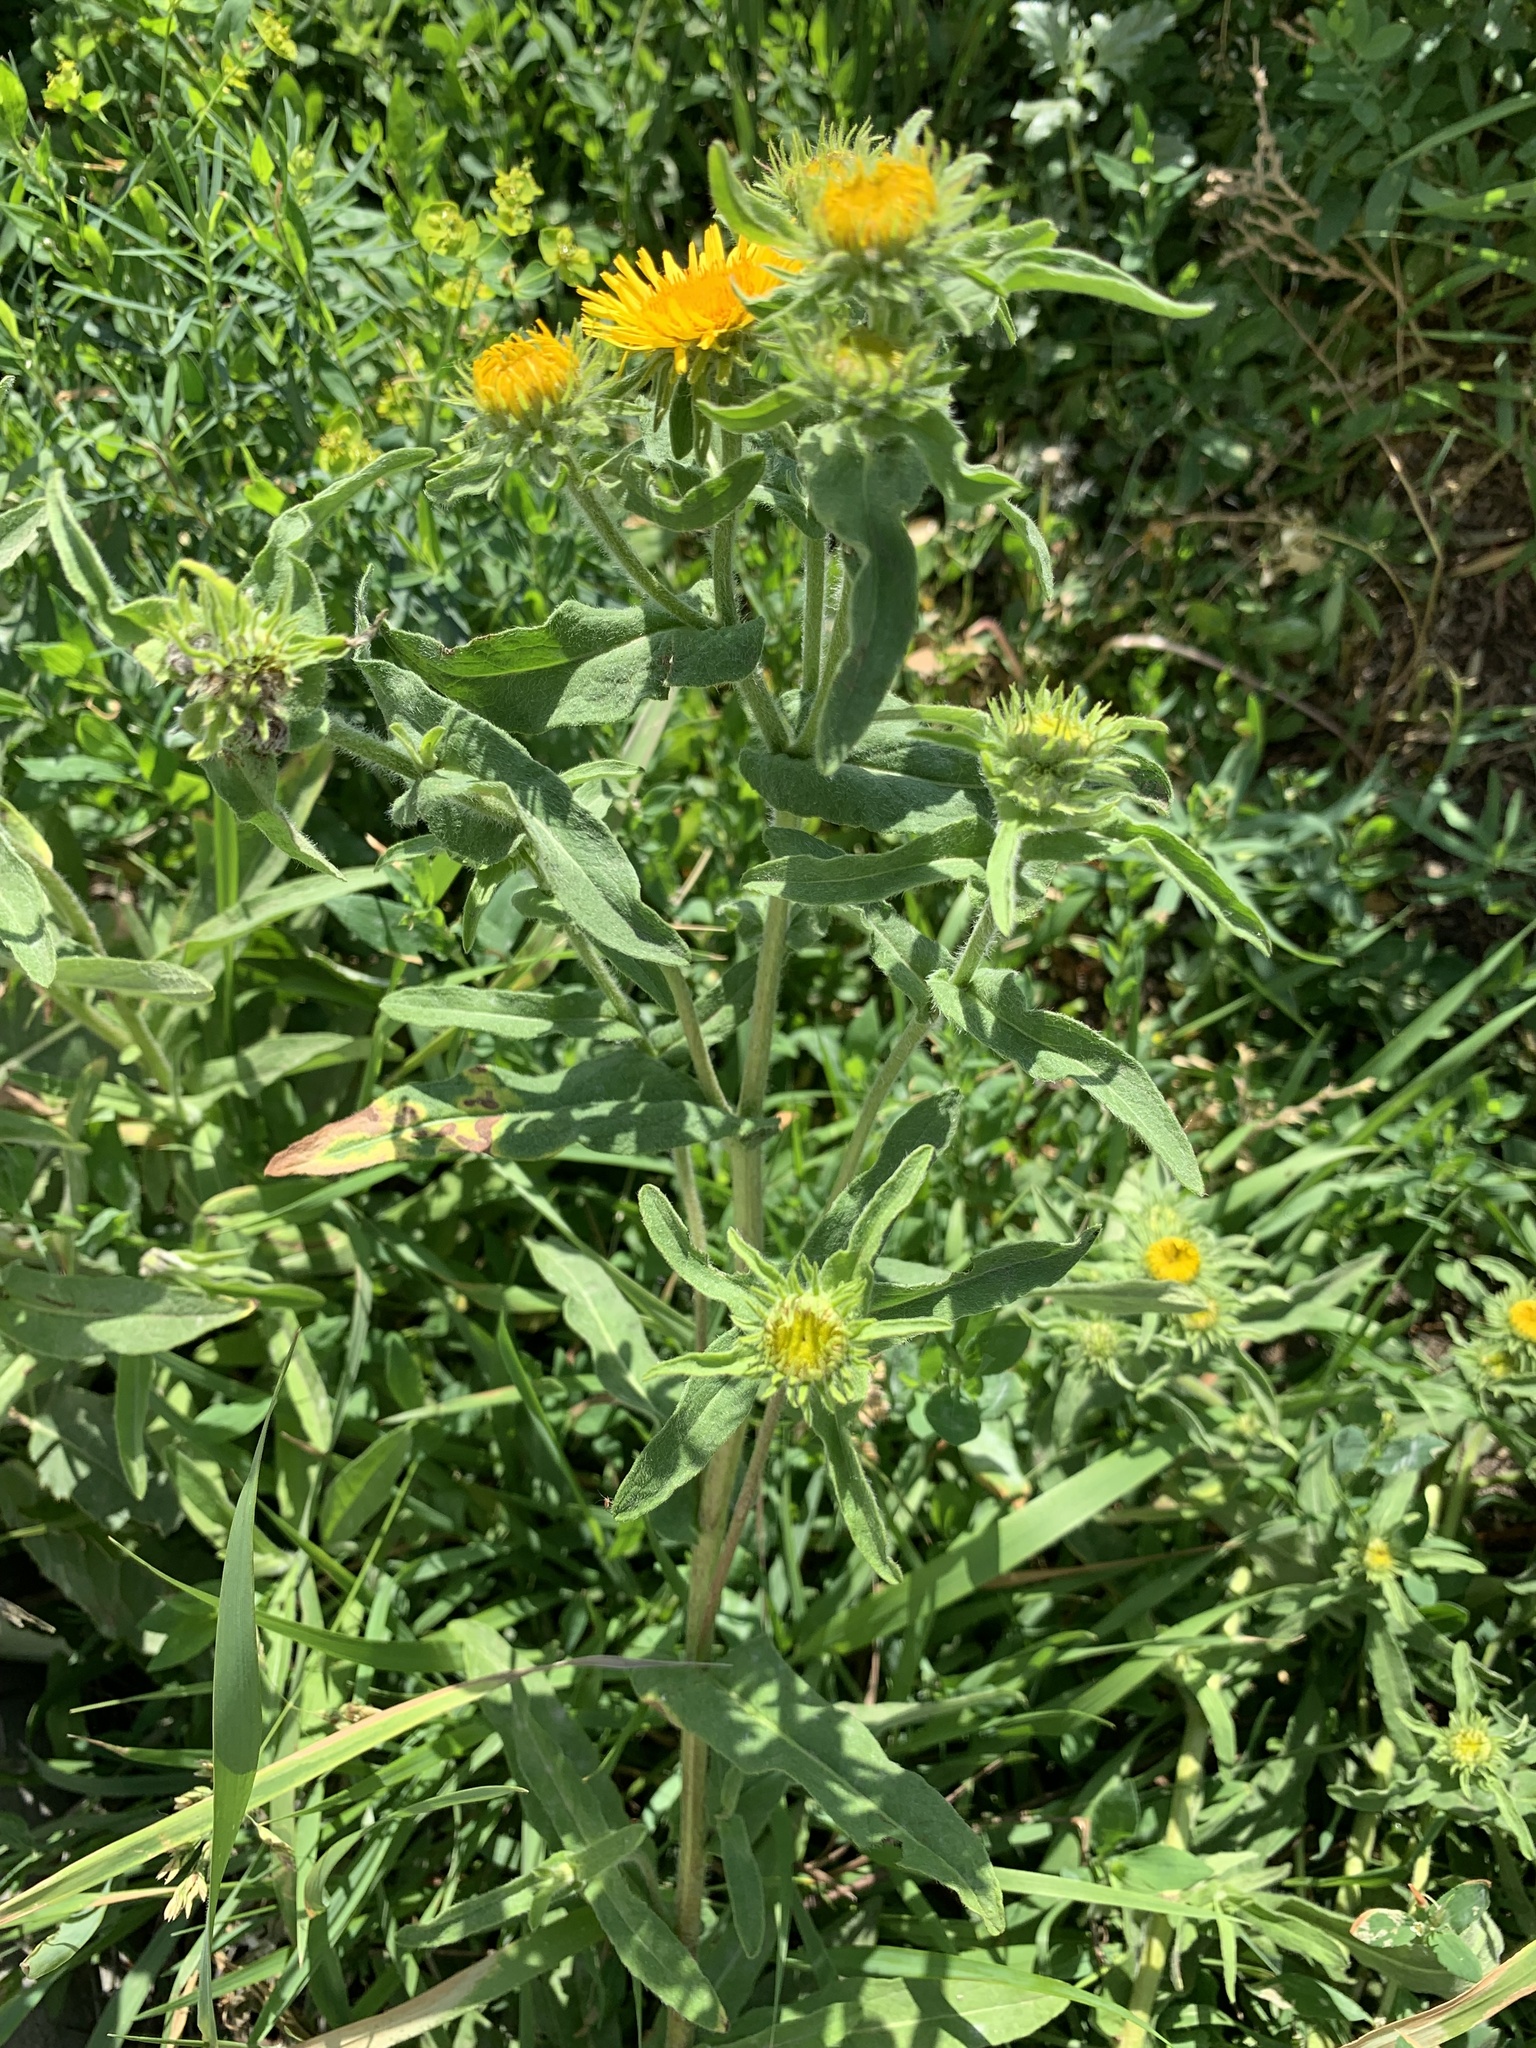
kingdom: Plantae
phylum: Tracheophyta
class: Magnoliopsida
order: Asterales
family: Asteraceae
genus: Pentanema
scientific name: Pentanema britannicum
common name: British elecampane
